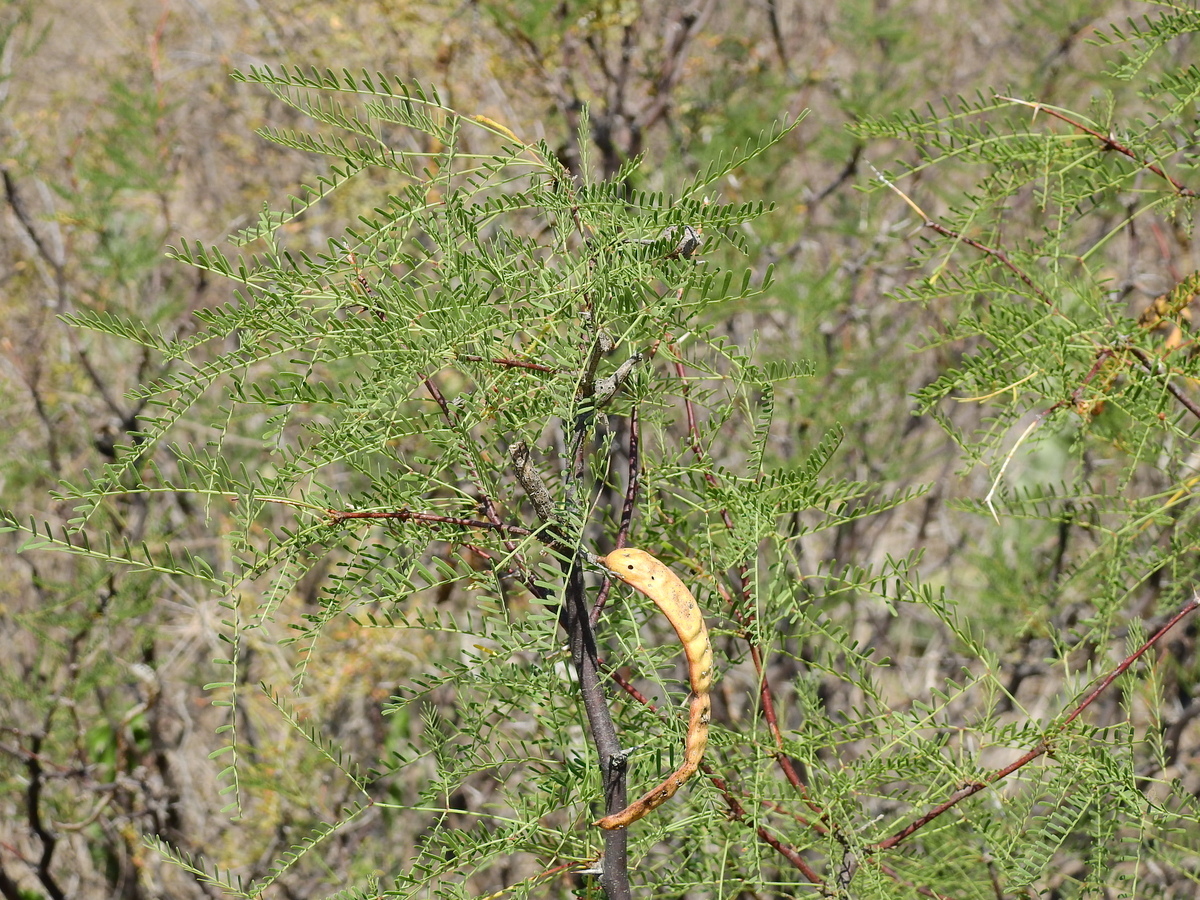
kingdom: Plantae
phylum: Tracheophyta
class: Magnoliopsida
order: Fabales
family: Fabaceae
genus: Prosopis
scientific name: Prosopis flexuosa
